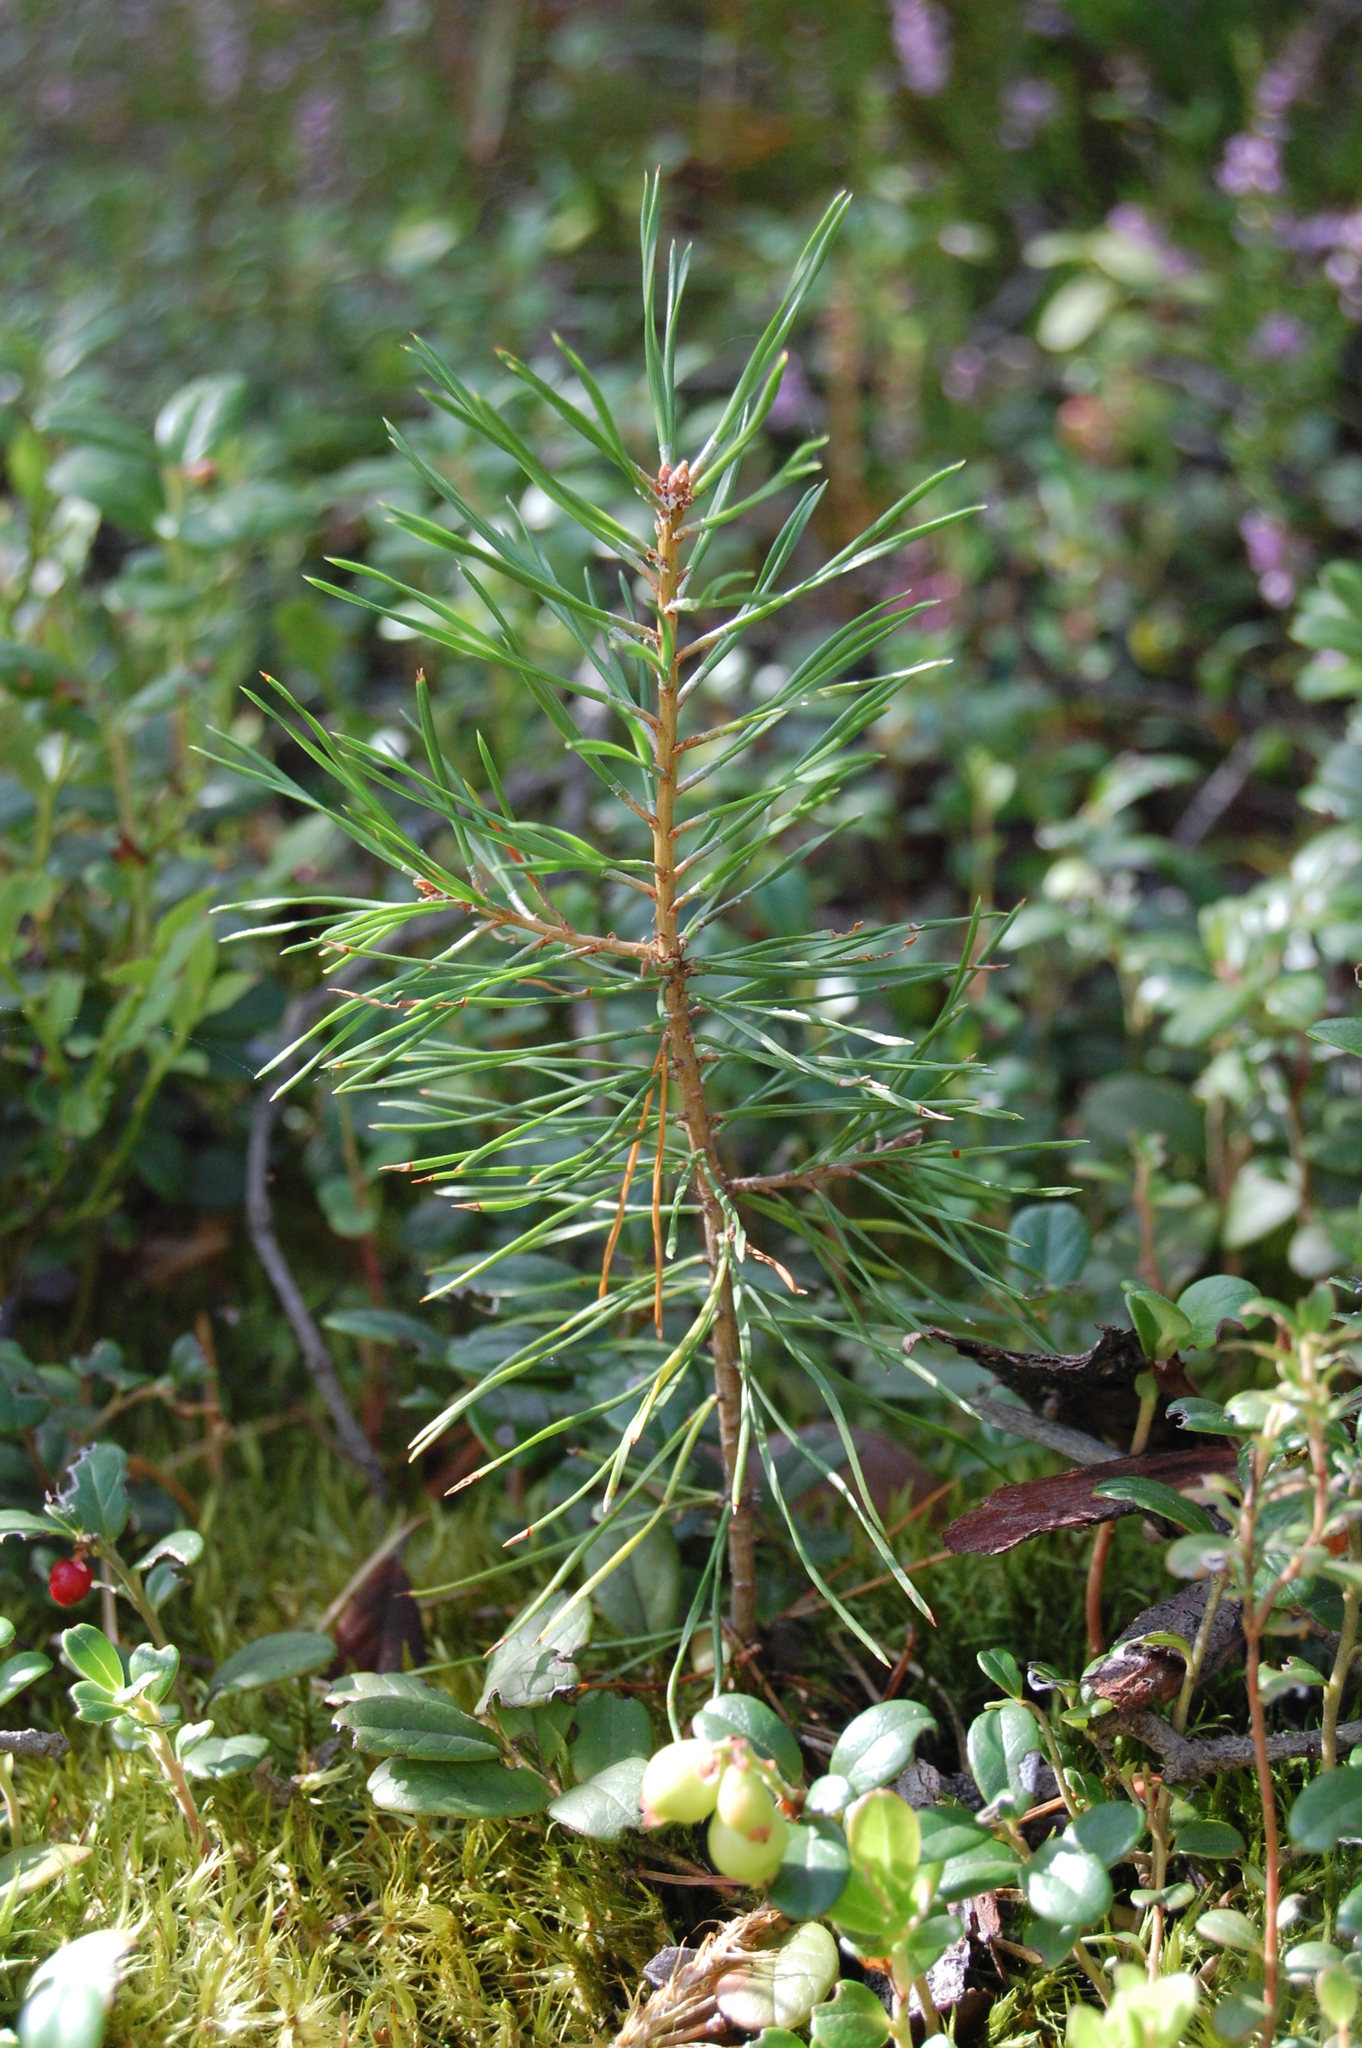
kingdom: Plantae
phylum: Tracheophyta
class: Pinopsida
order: Pinales
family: Pinaceae
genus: Pinus
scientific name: Pinus sylvestris
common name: Scots pine
